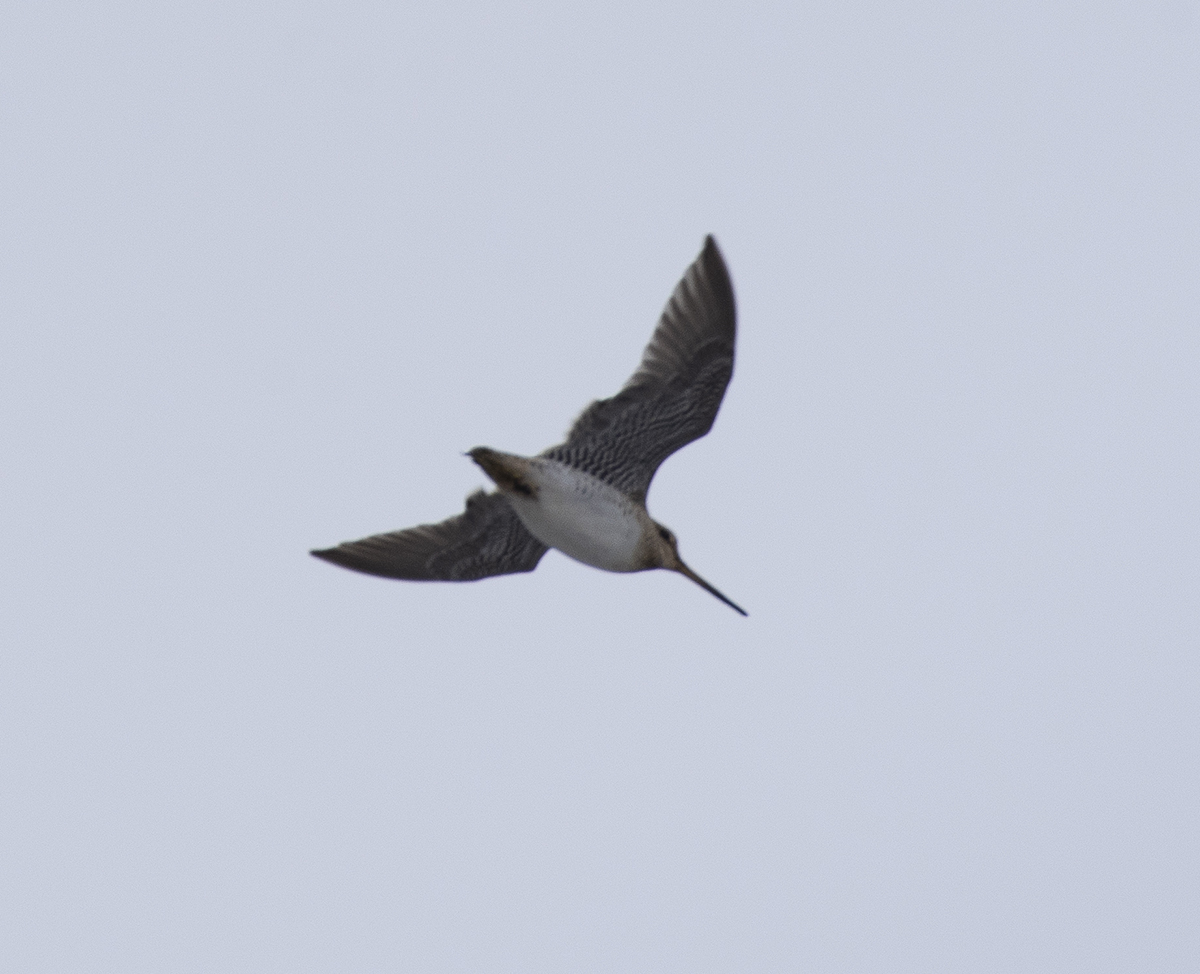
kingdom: Animalia
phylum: Chordata
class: Aves
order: Charadriiformes
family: Scolopacidae
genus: Gallinago
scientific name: Gallinago megala
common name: Swinhoe's snipe
